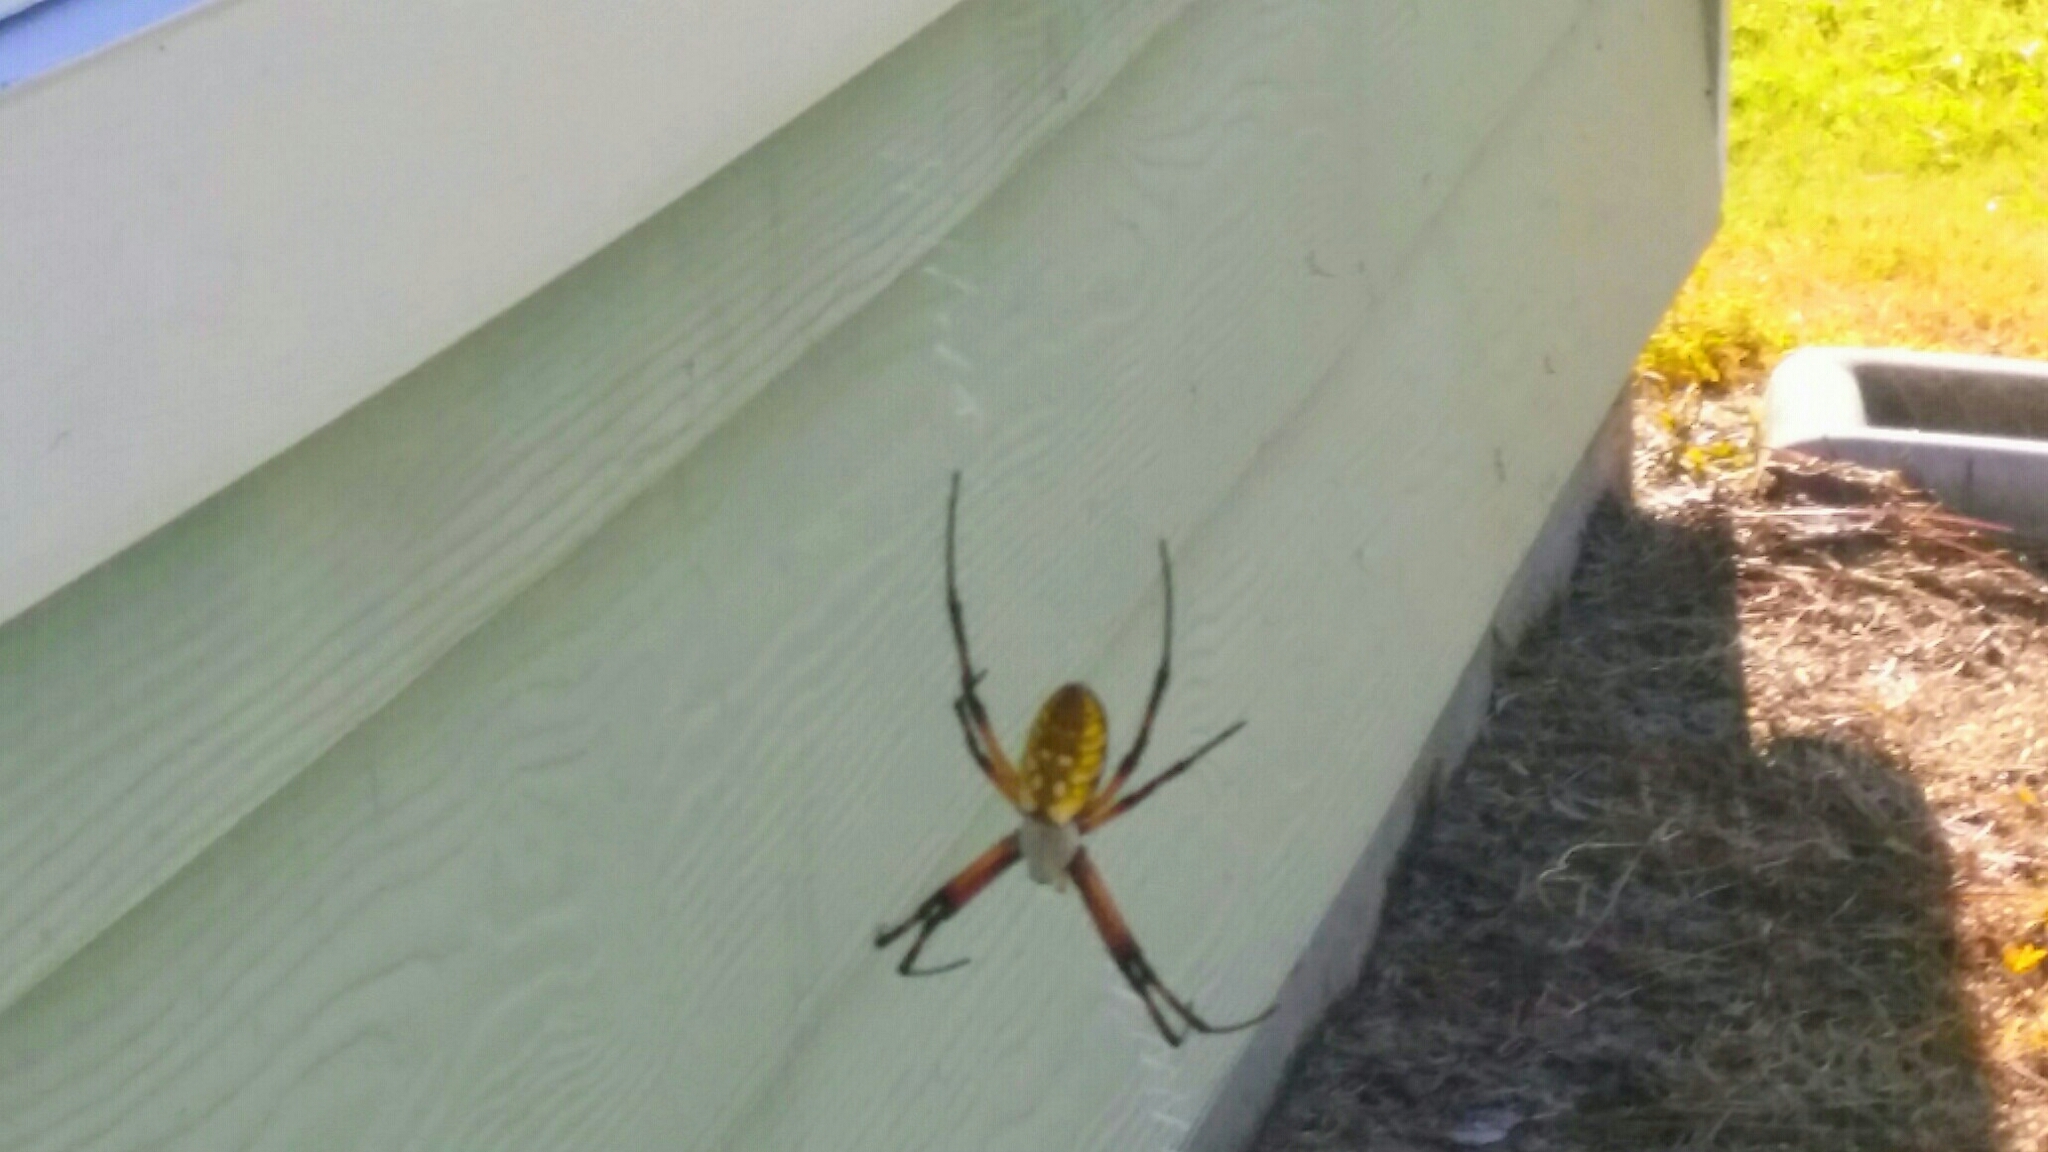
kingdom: Animalia
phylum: Arthropoda
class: Arachnida
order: Araneae
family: Araneidae
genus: Argiope
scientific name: Argiope aurantia
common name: Orb weavers
